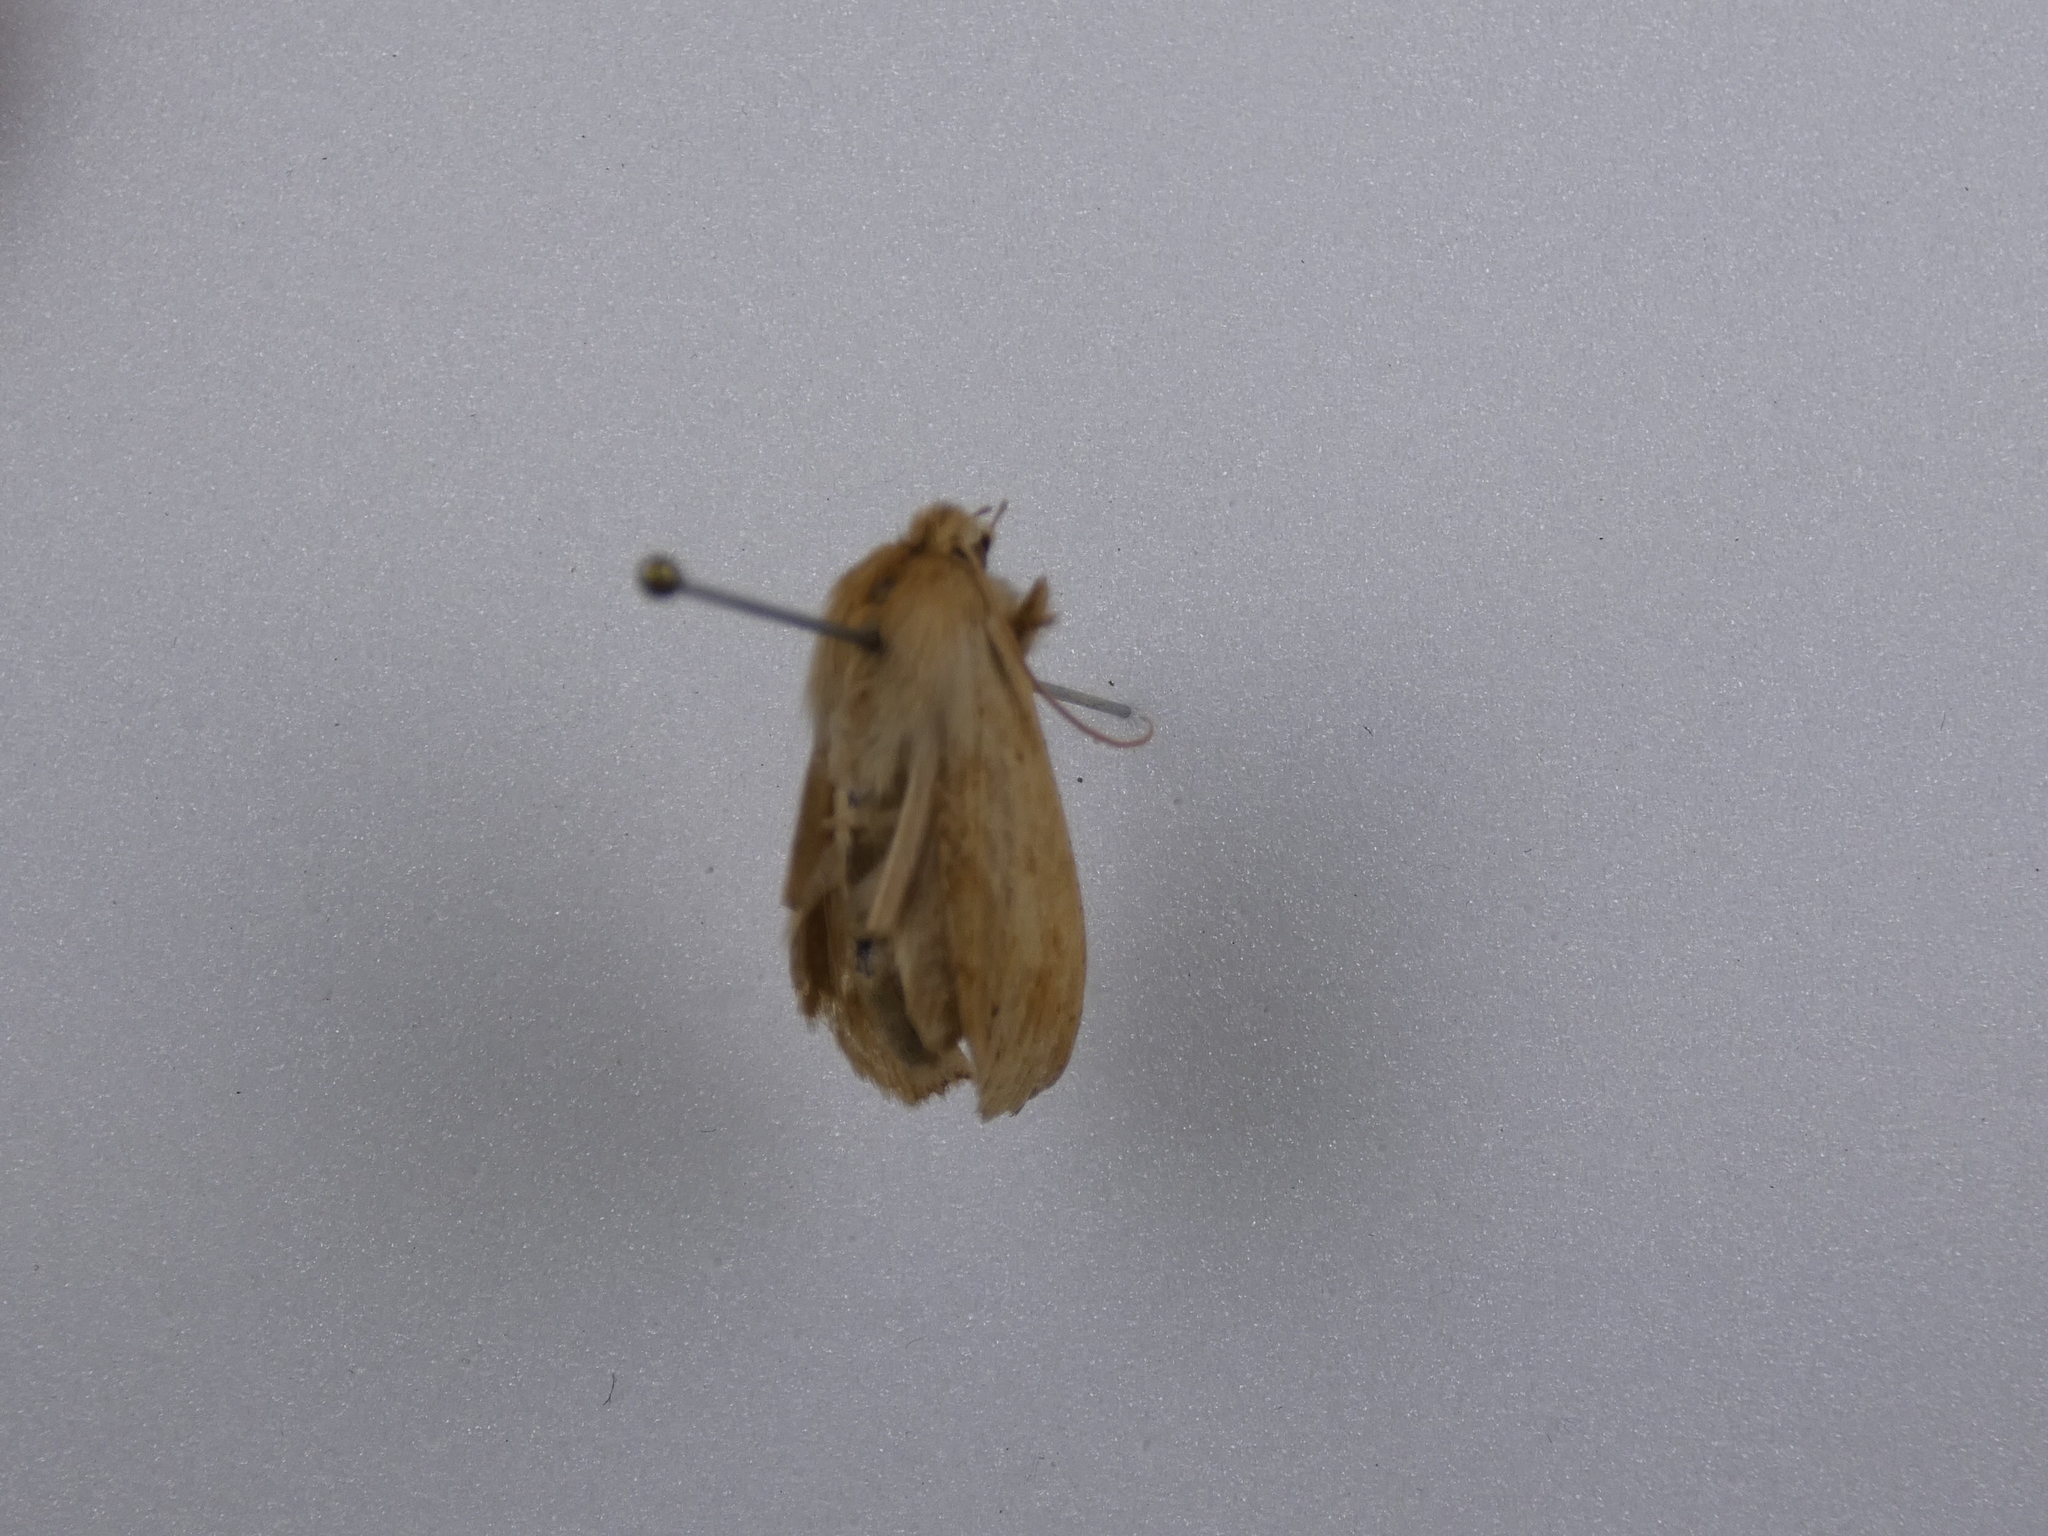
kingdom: Animalia
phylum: Arthropoda
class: Insecta
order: Lepidoptera
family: Geometridae
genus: Declana
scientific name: Declana leptomera
